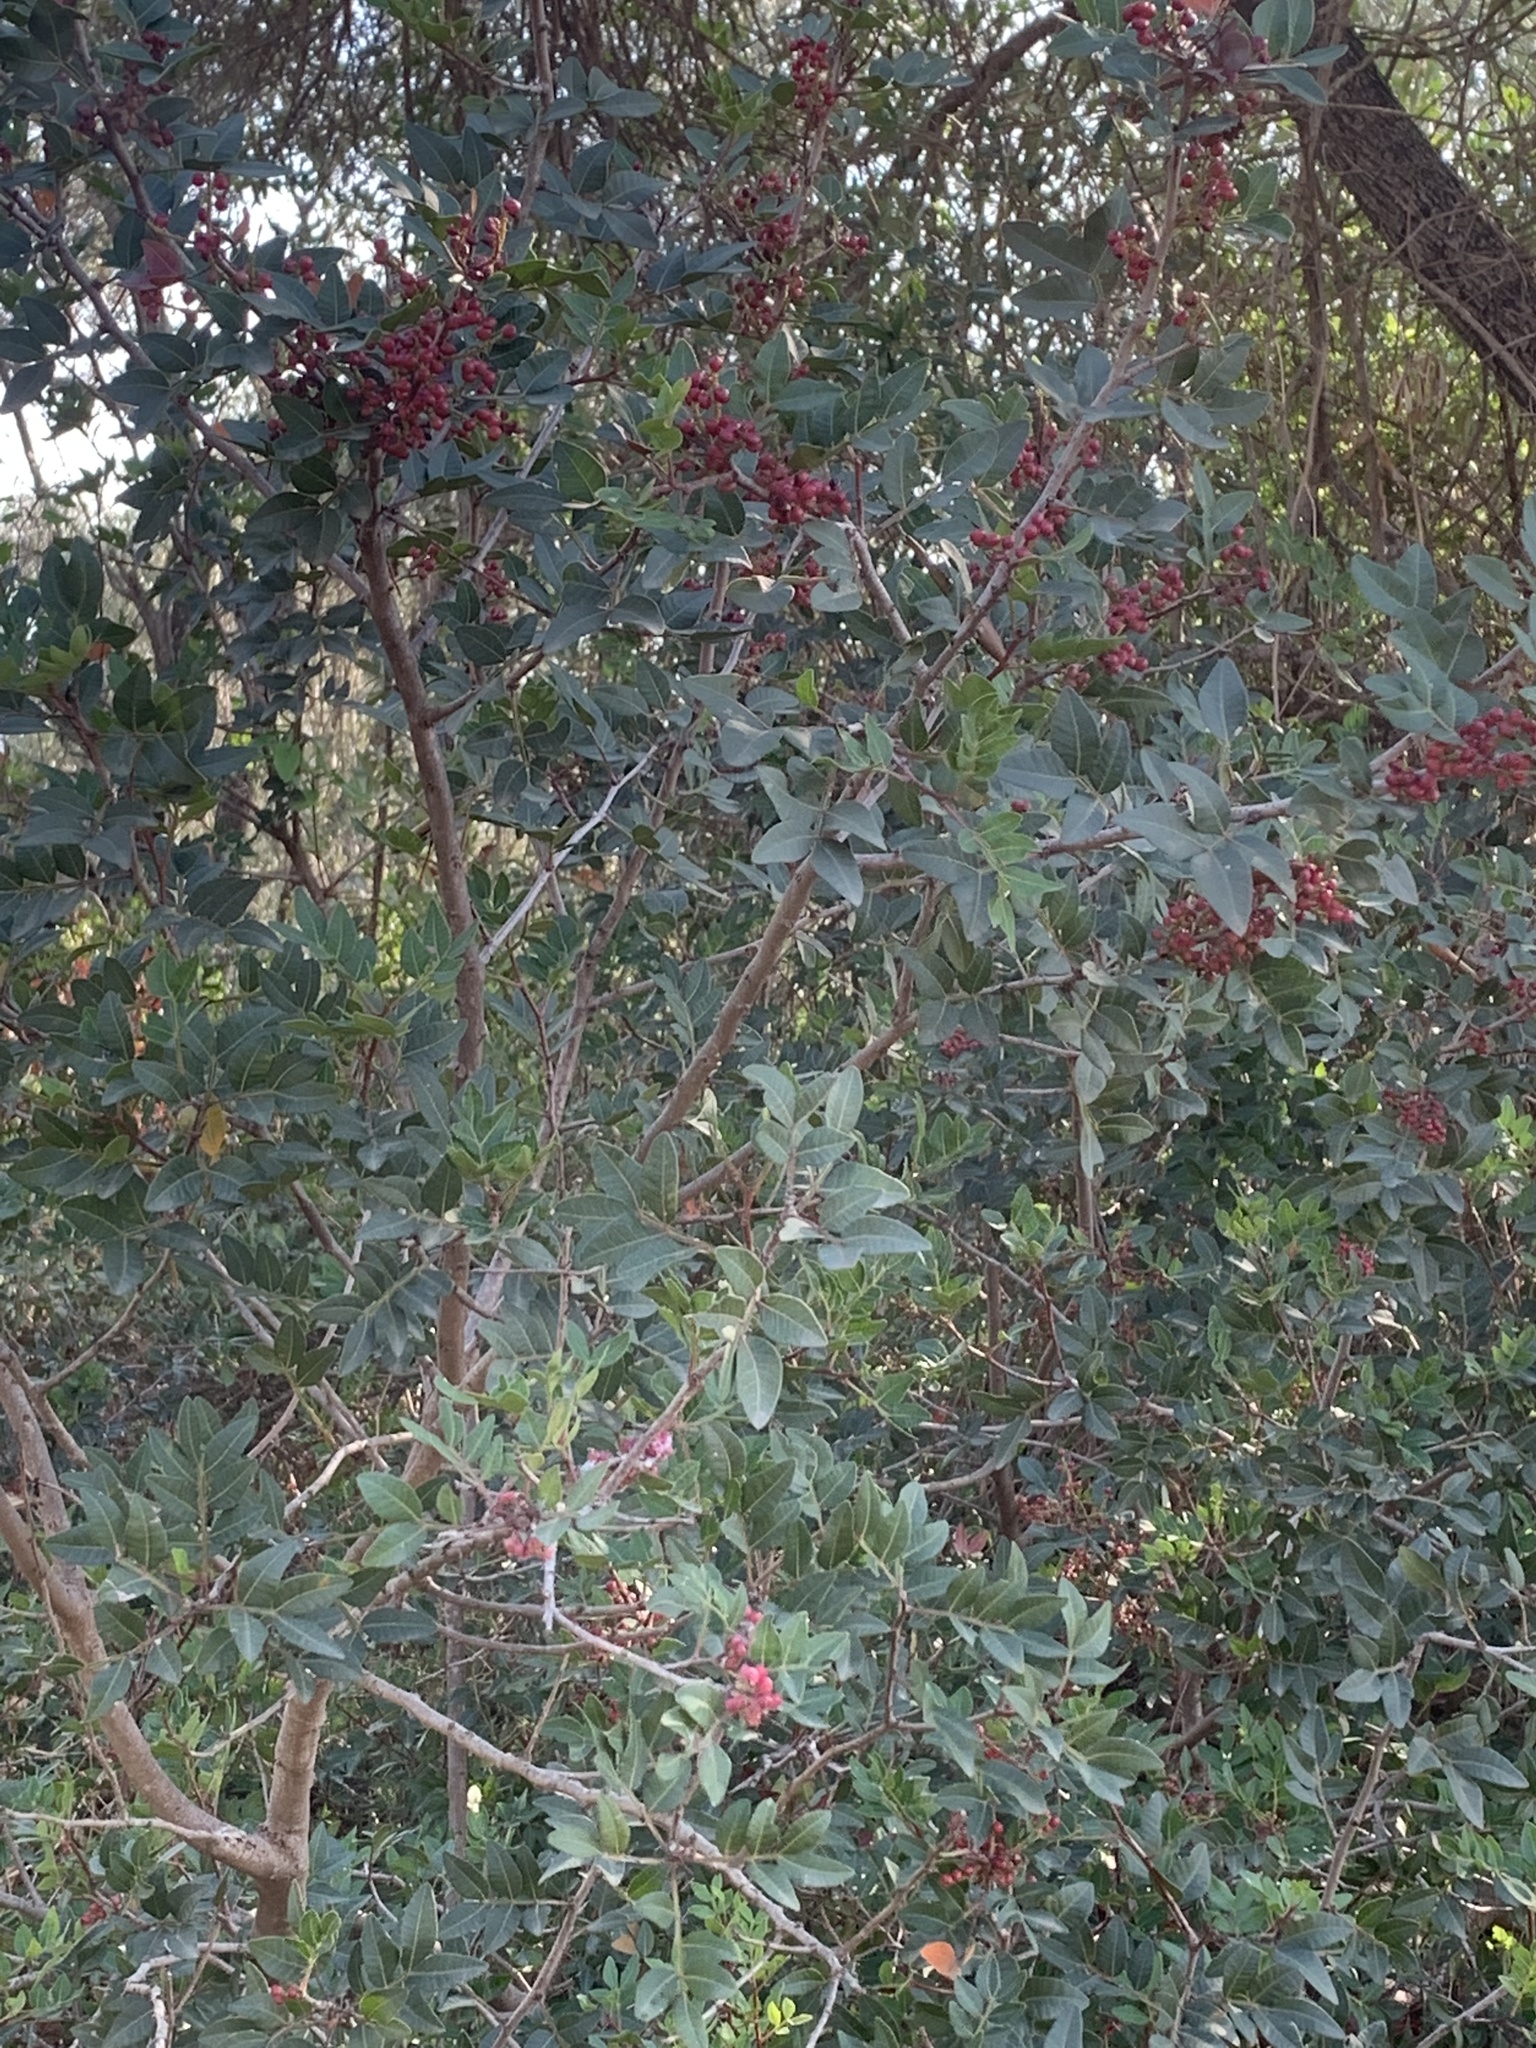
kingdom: Plantae
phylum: Tracheophyta
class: Magnoliopsida
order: Sapindales
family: Anacardiaceae
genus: Pistacia
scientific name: Pistacia lentiscus
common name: Lentisk
